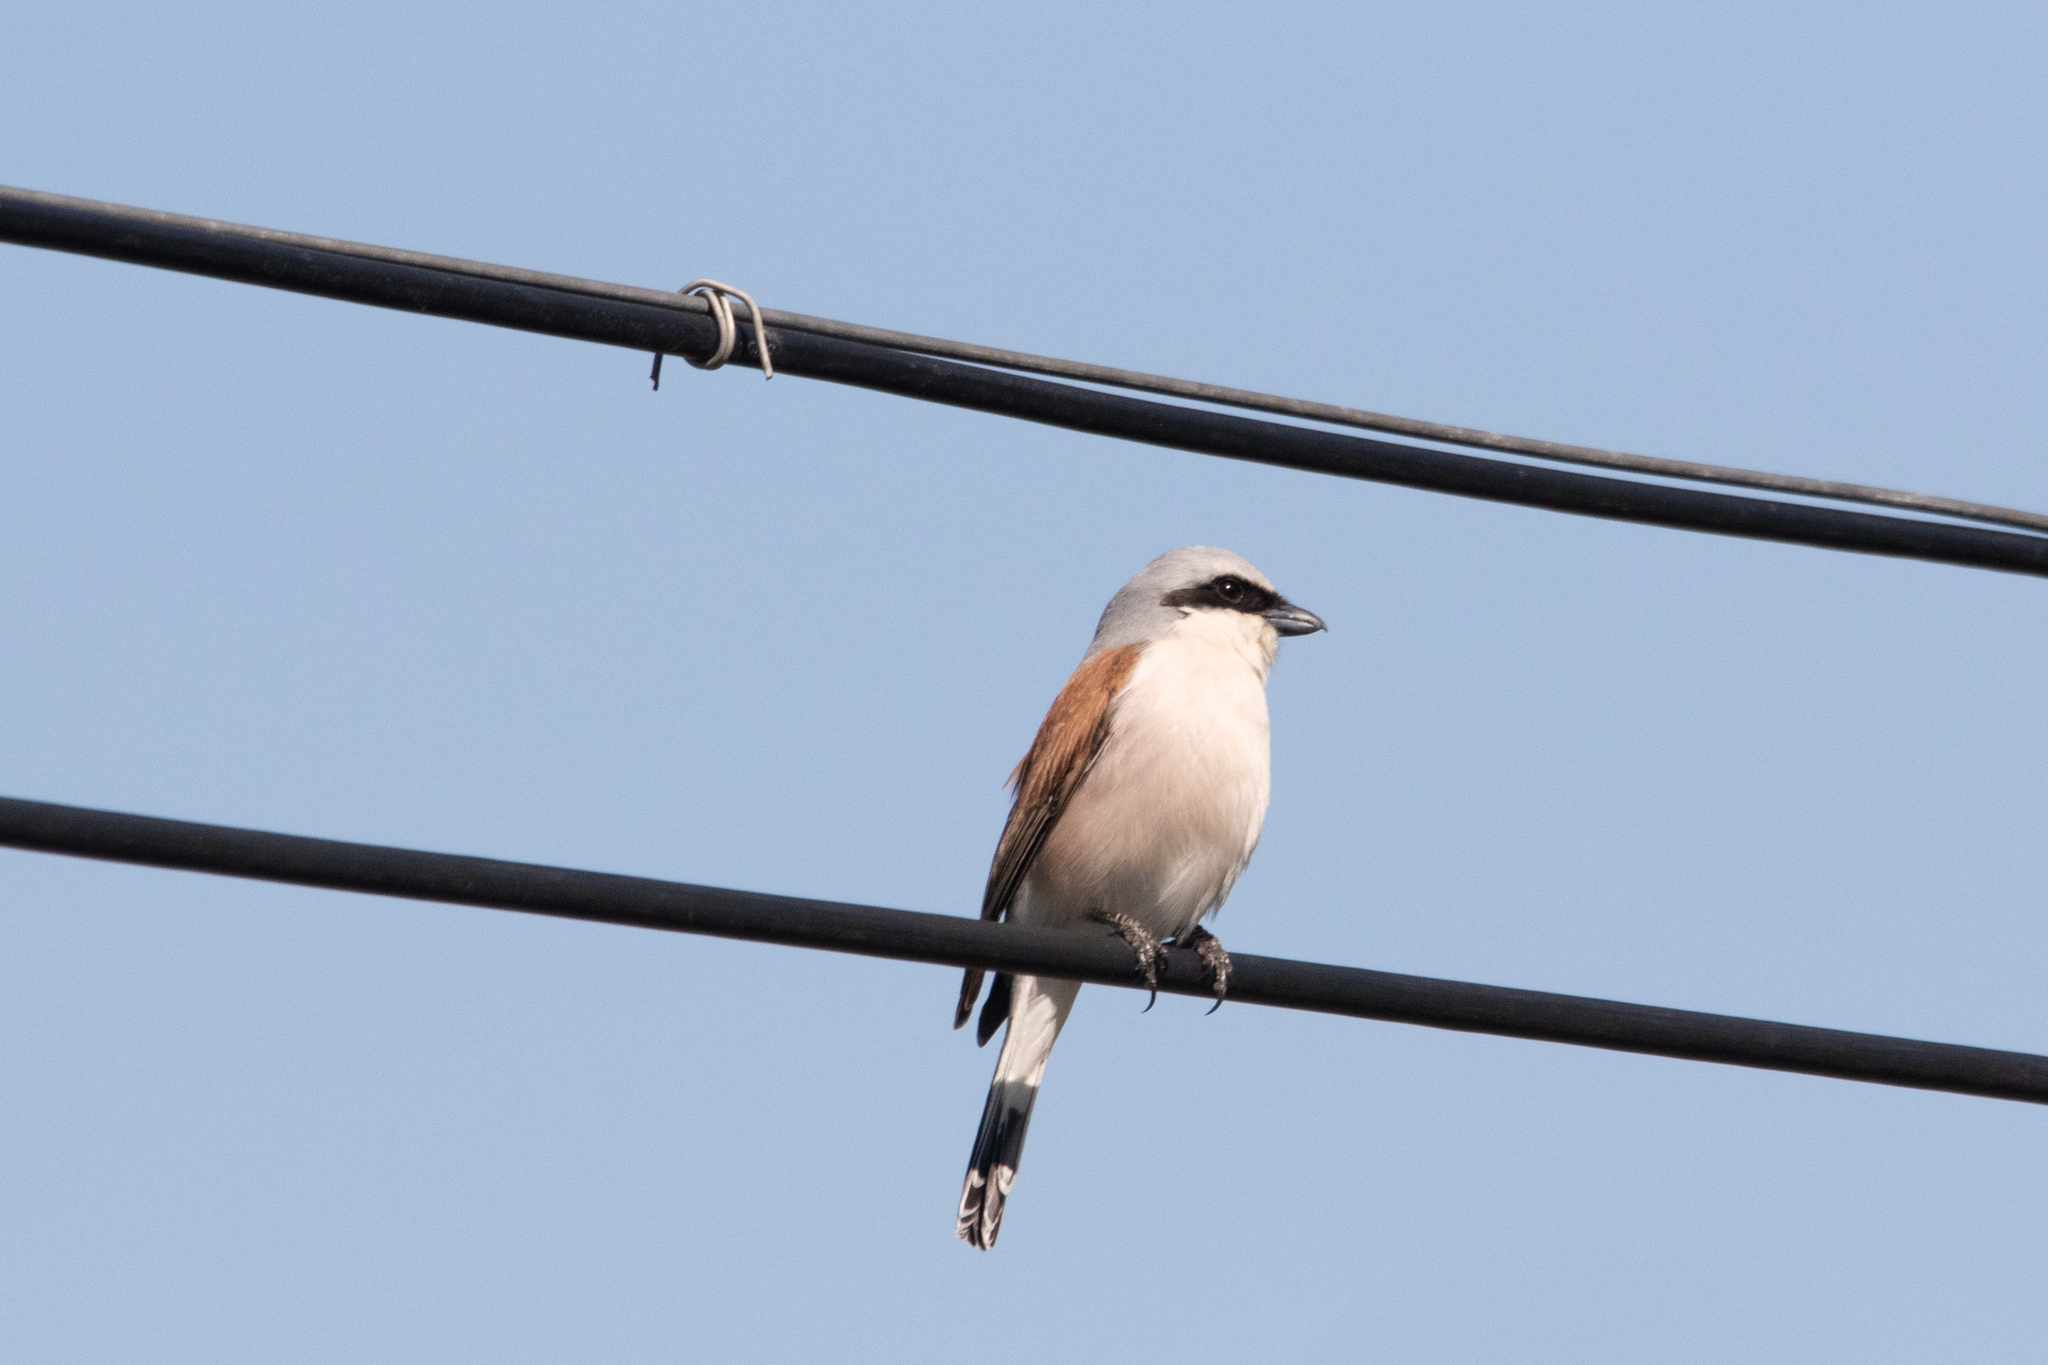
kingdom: Animalia
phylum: Chordata
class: Aves
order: Passeriformes
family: Laniidae
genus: Lanius
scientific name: Lanius collurio
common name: Red-backed shrike
